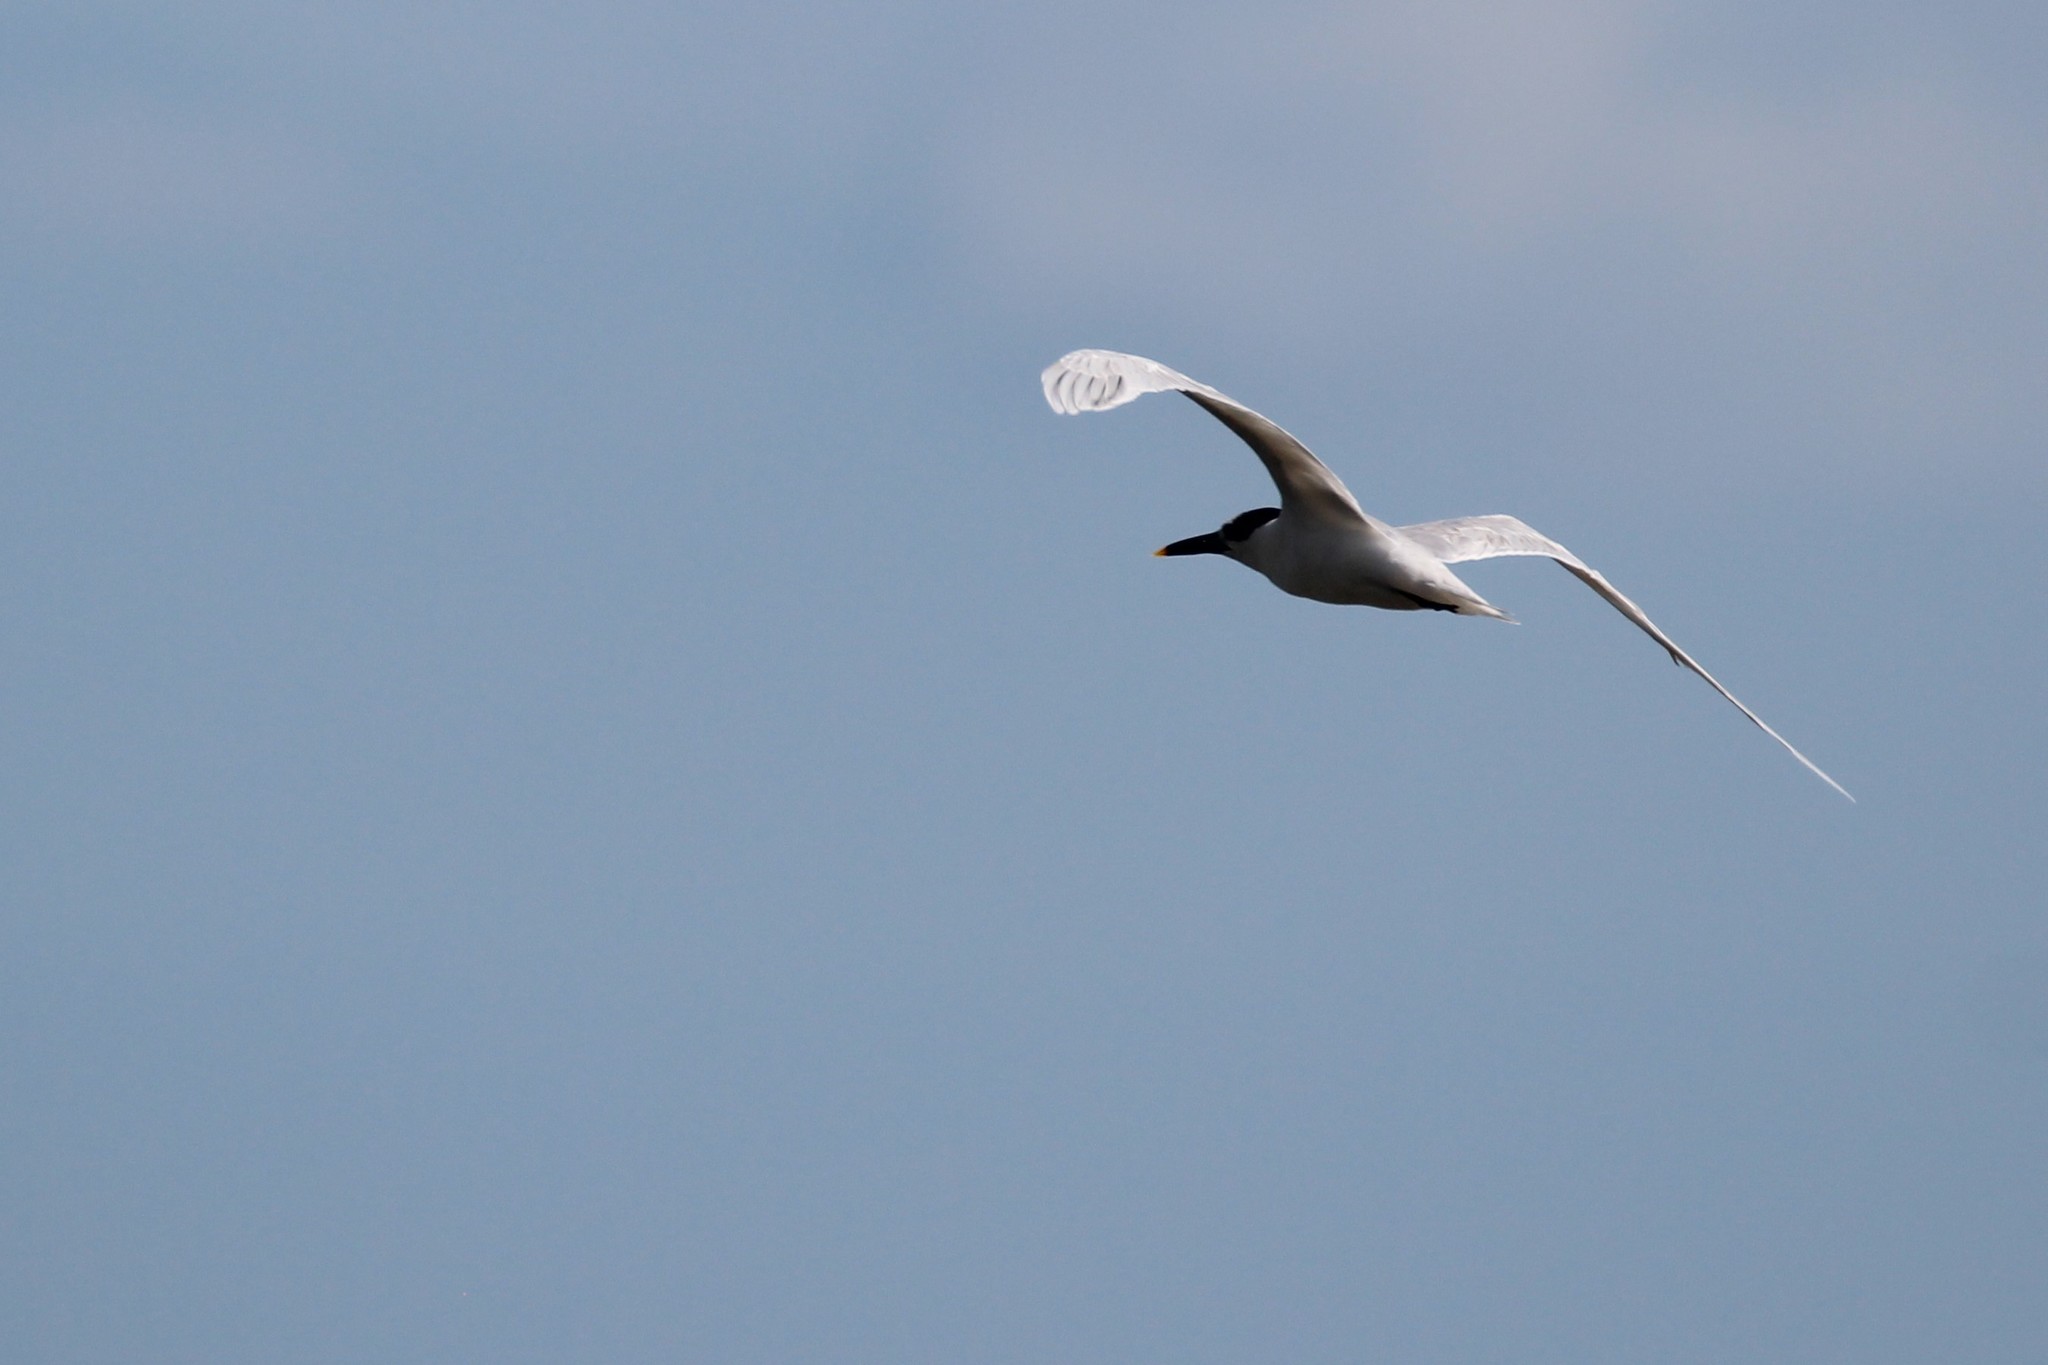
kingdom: Animalia
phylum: Chordata
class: Aves
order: Charadriiformes
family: Laridae
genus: Thalasseus
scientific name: Thalasseus sandvicensis
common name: Sandwich tern
